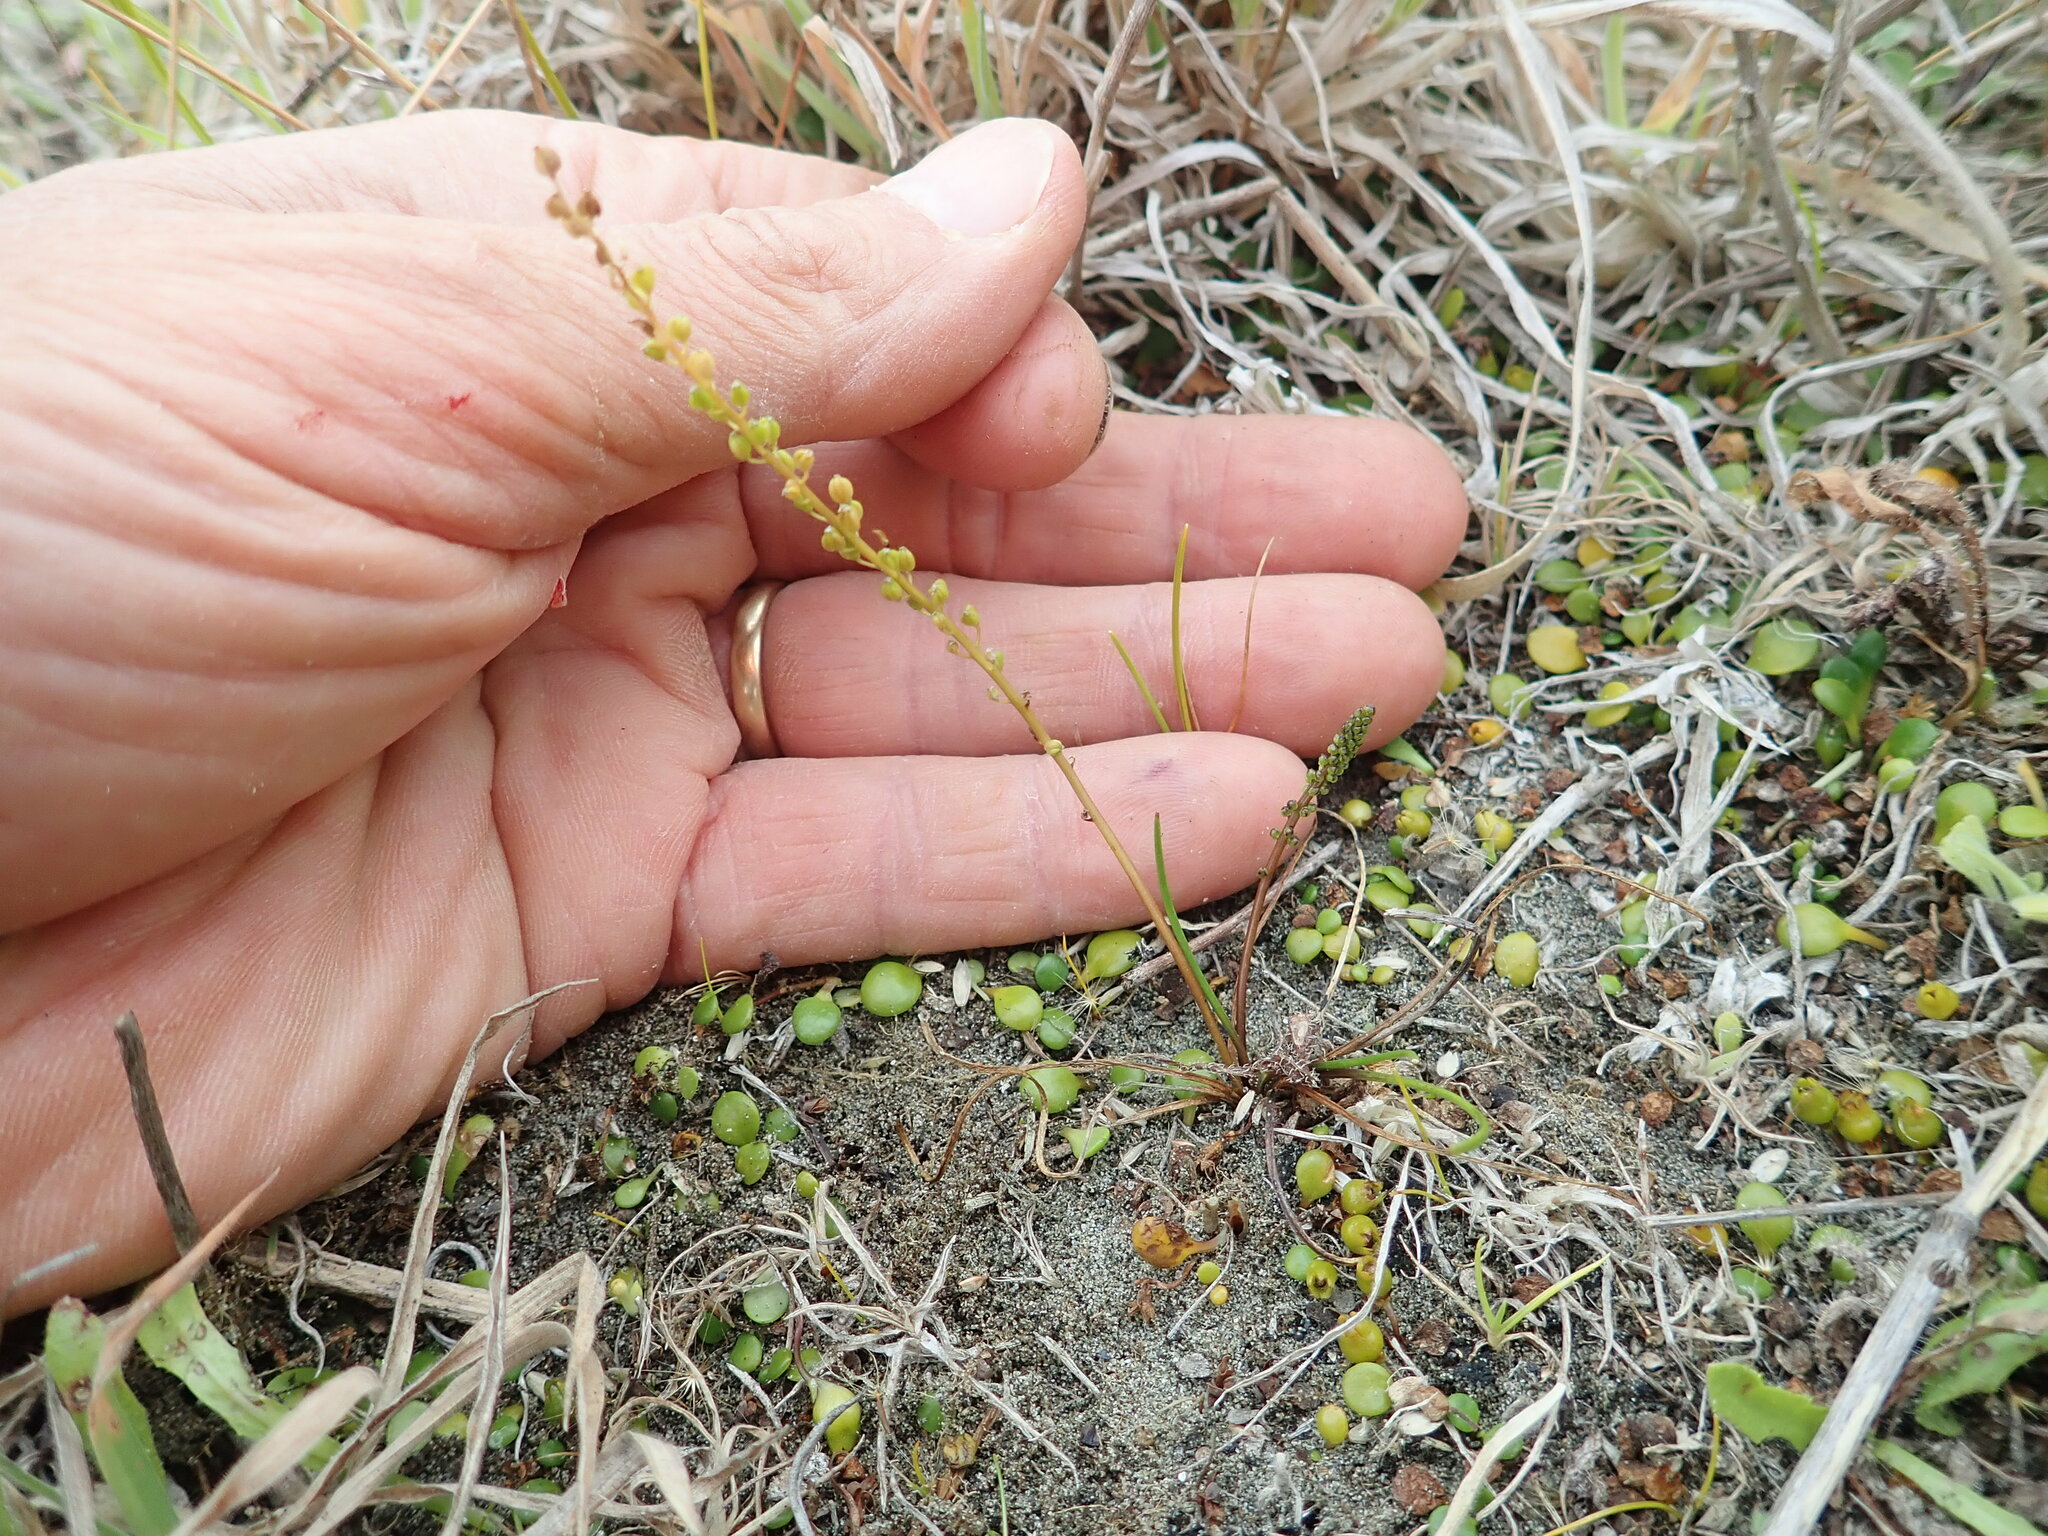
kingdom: Plantae
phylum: Tracheophyta
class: Liliopsida
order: Alismatales
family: Juncaginaceae
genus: Triglochin
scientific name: Triglochin striata
